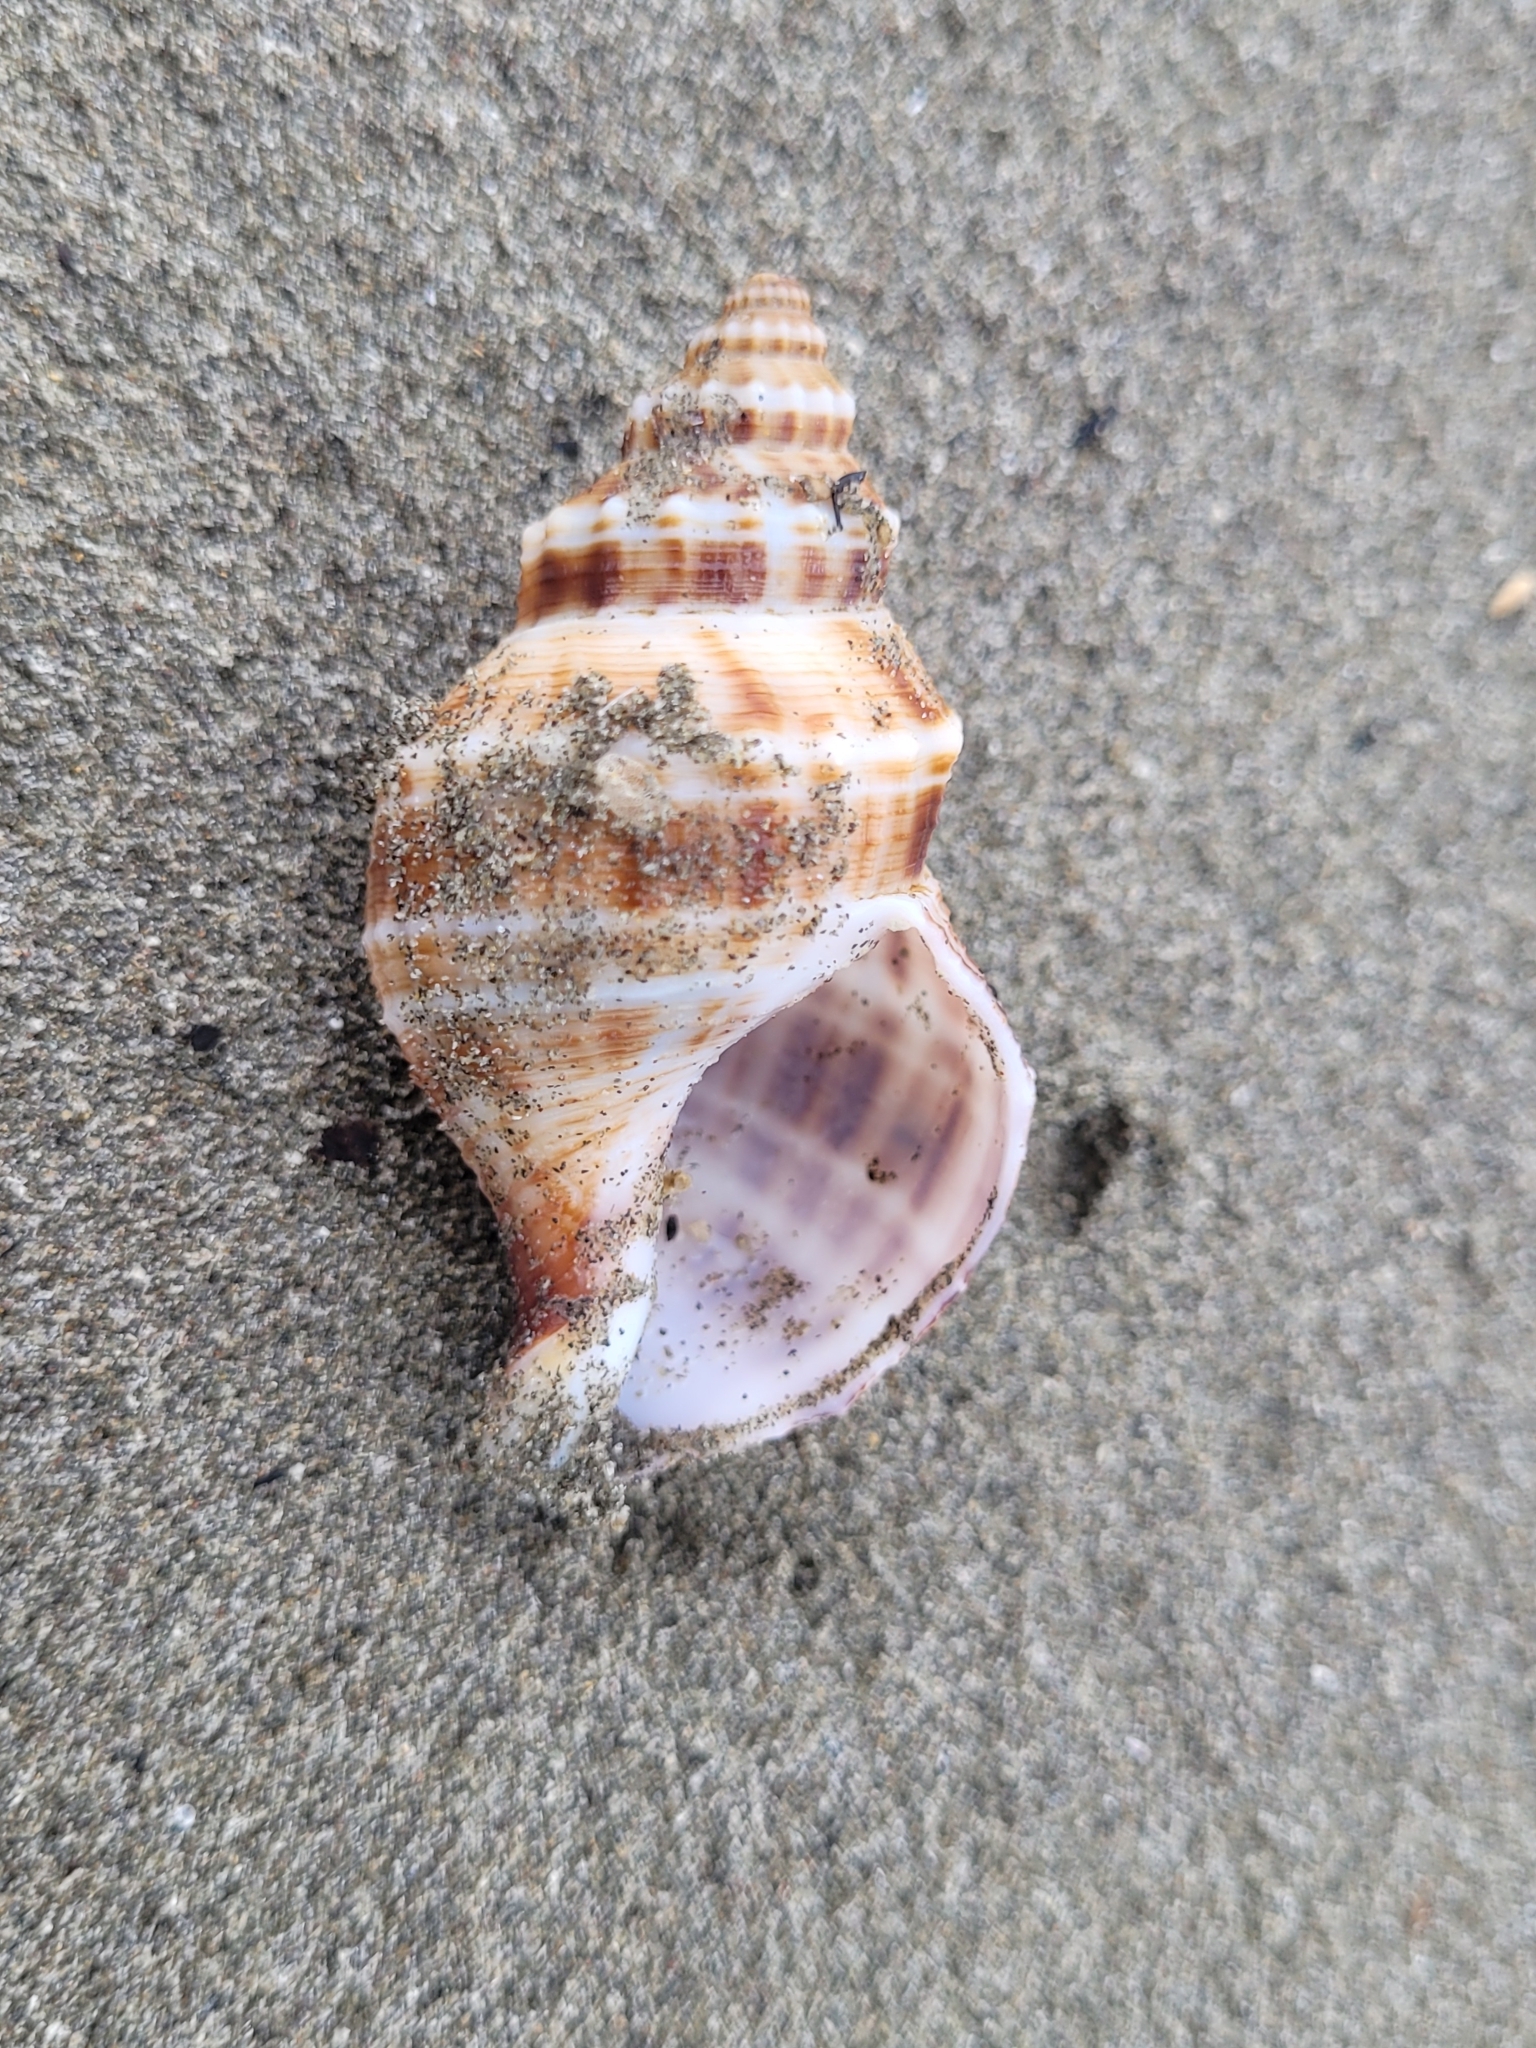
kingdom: Animalia
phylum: Mollusca
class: Gastropoda
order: Neogastropoda
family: Prosiphonidae
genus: Austrofusus
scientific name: Austrofusus glans
